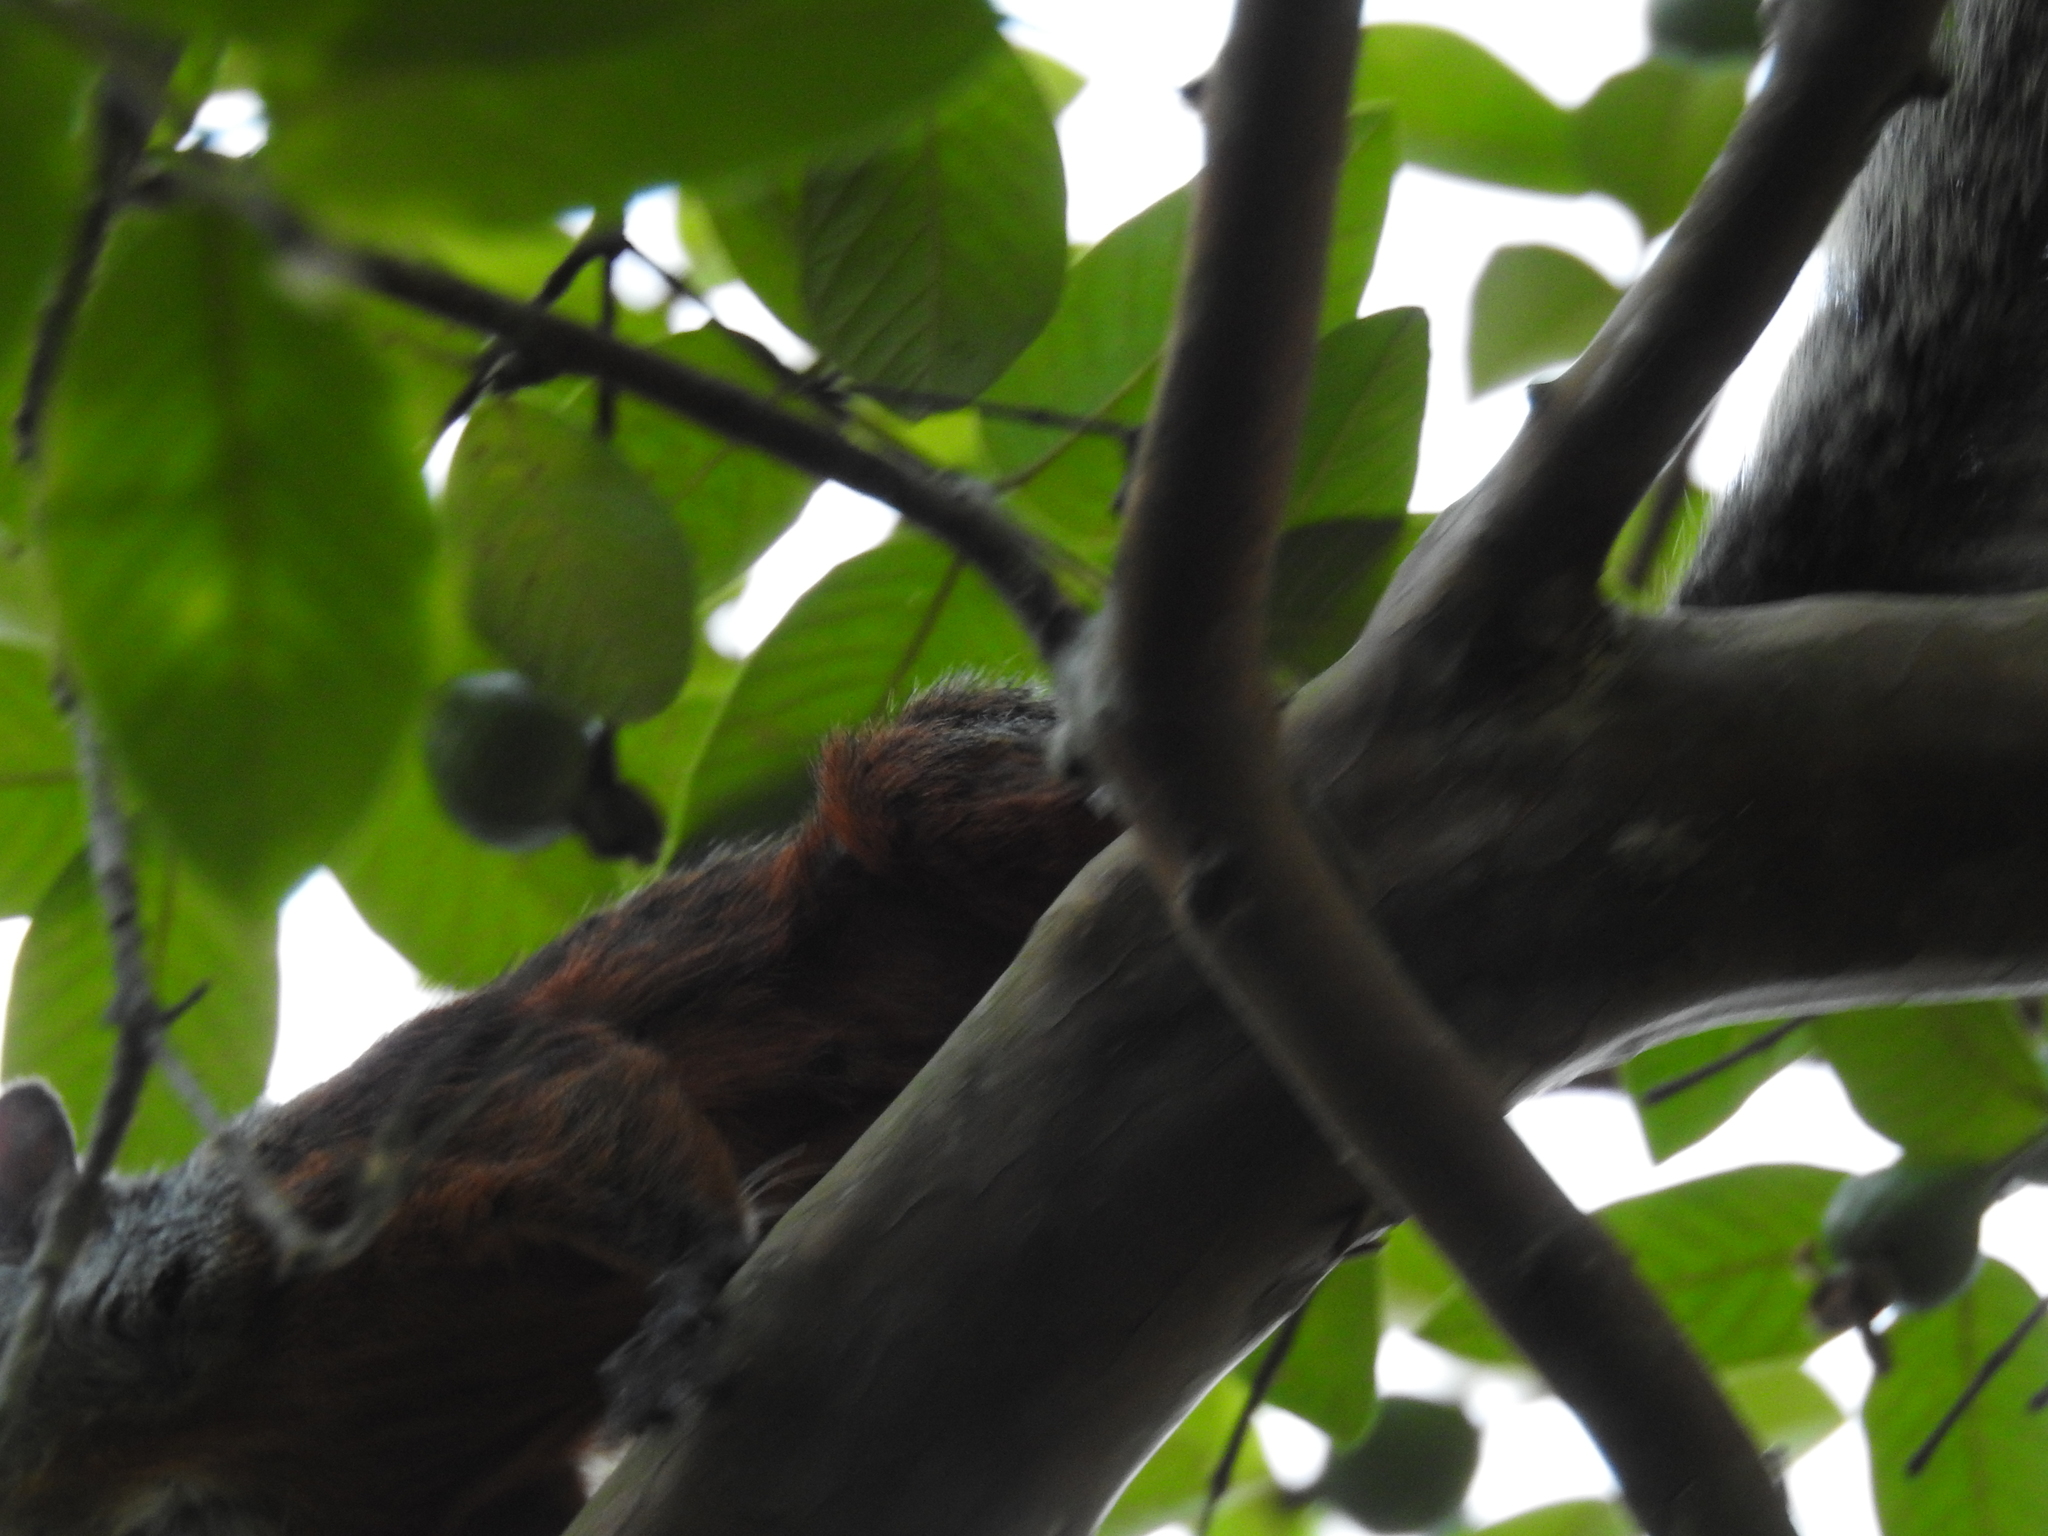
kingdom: Animalia
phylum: Chordata
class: Mammalia
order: Rodentia
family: Sciuridae
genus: Sciurus
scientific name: Sciurus aureogaster
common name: Red-bellied squirrel
